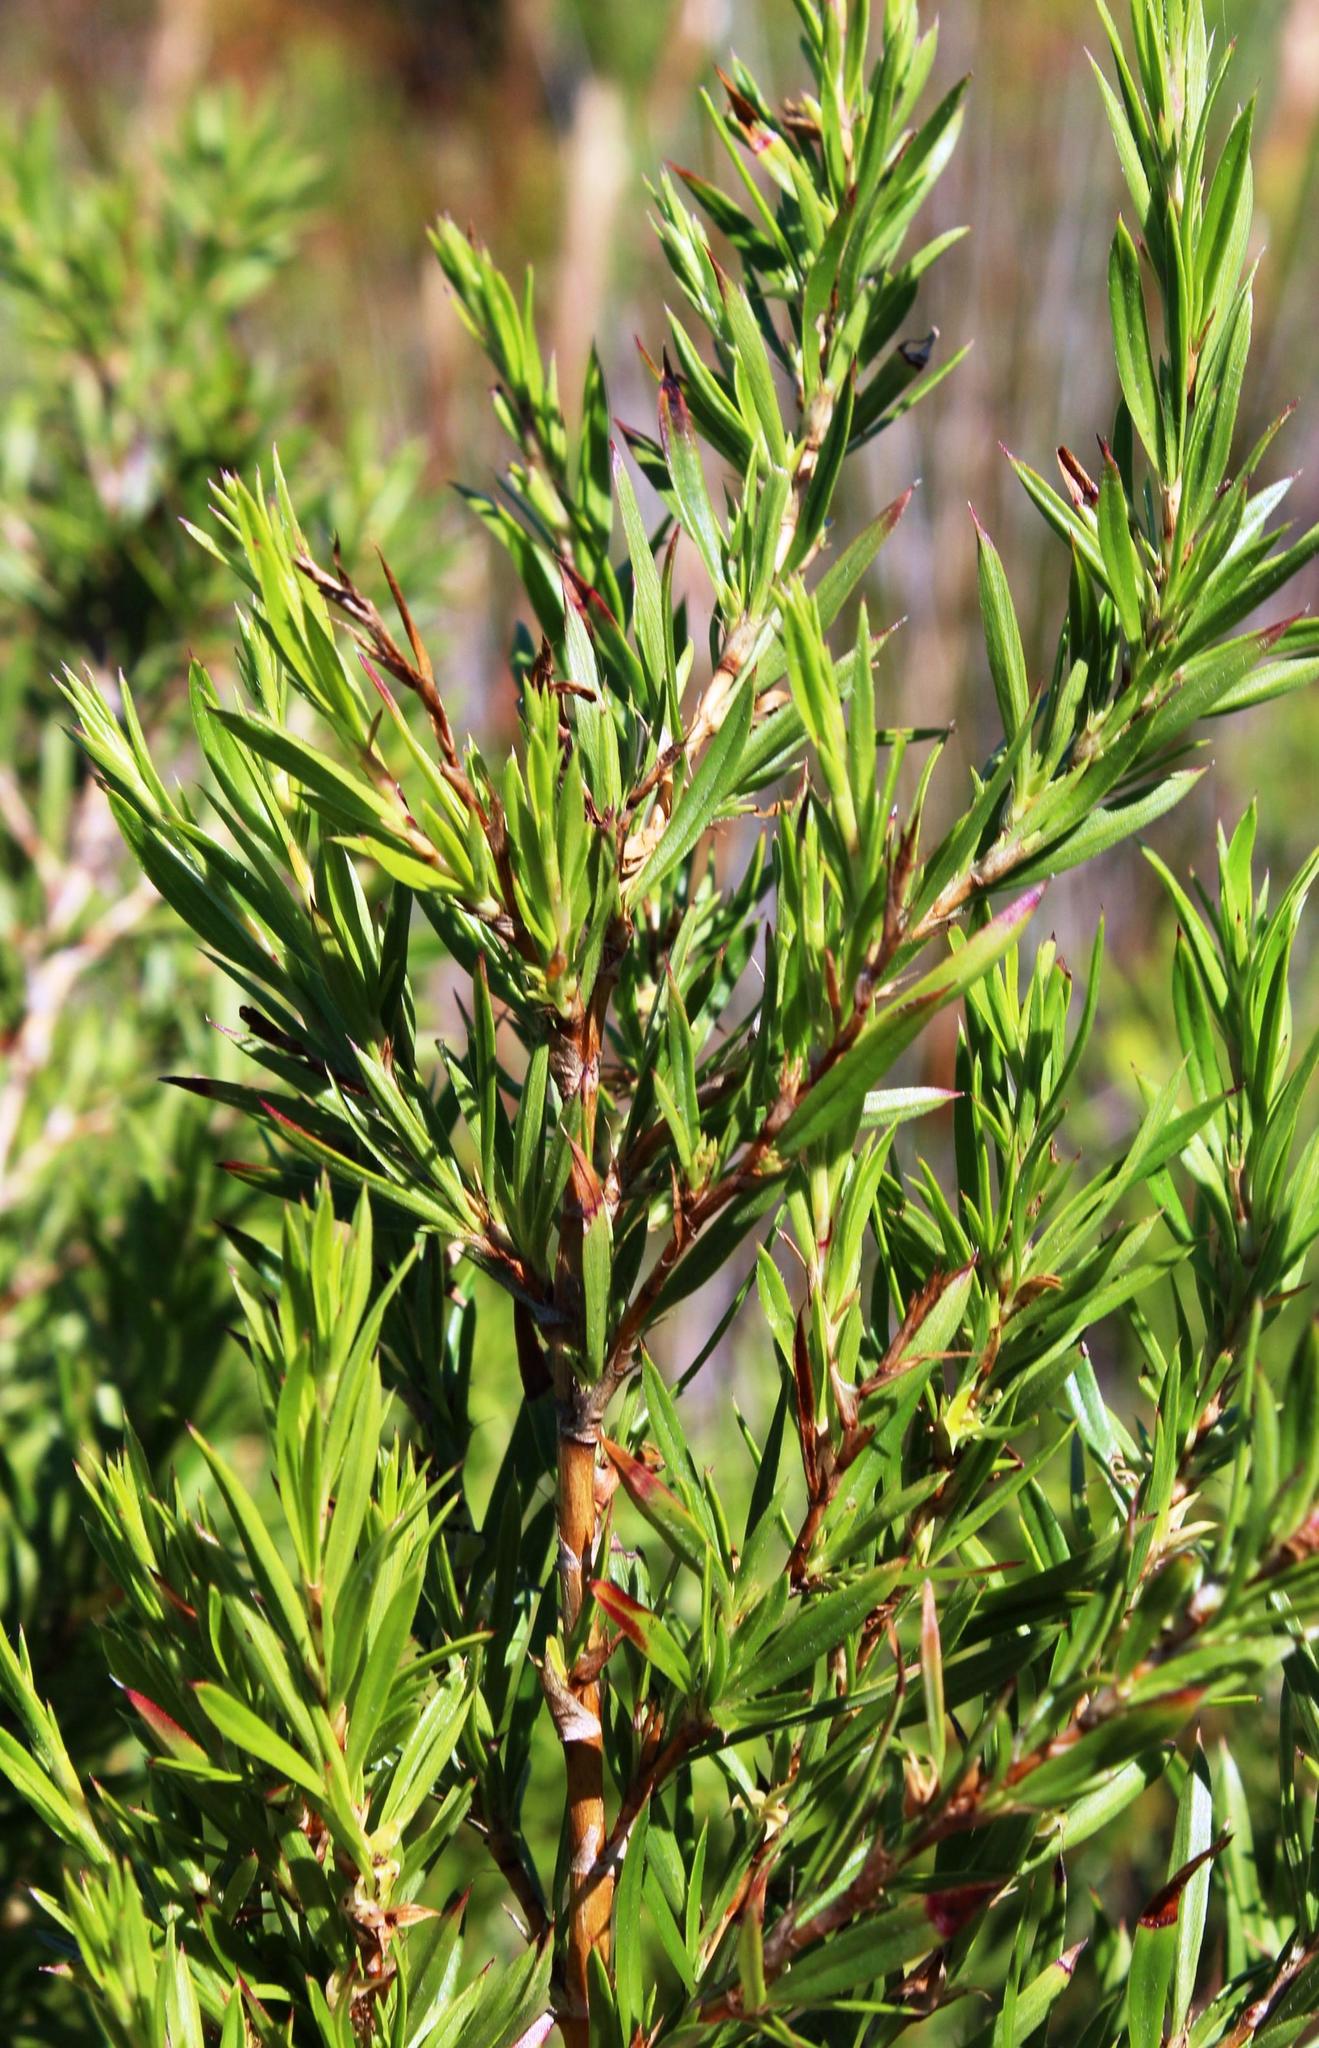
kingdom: Plantae
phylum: Tracheophyta
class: Magnoliopsida
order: Rosales
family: Rosaceae
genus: Cliffortia
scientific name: Cliffortia strobilifera
